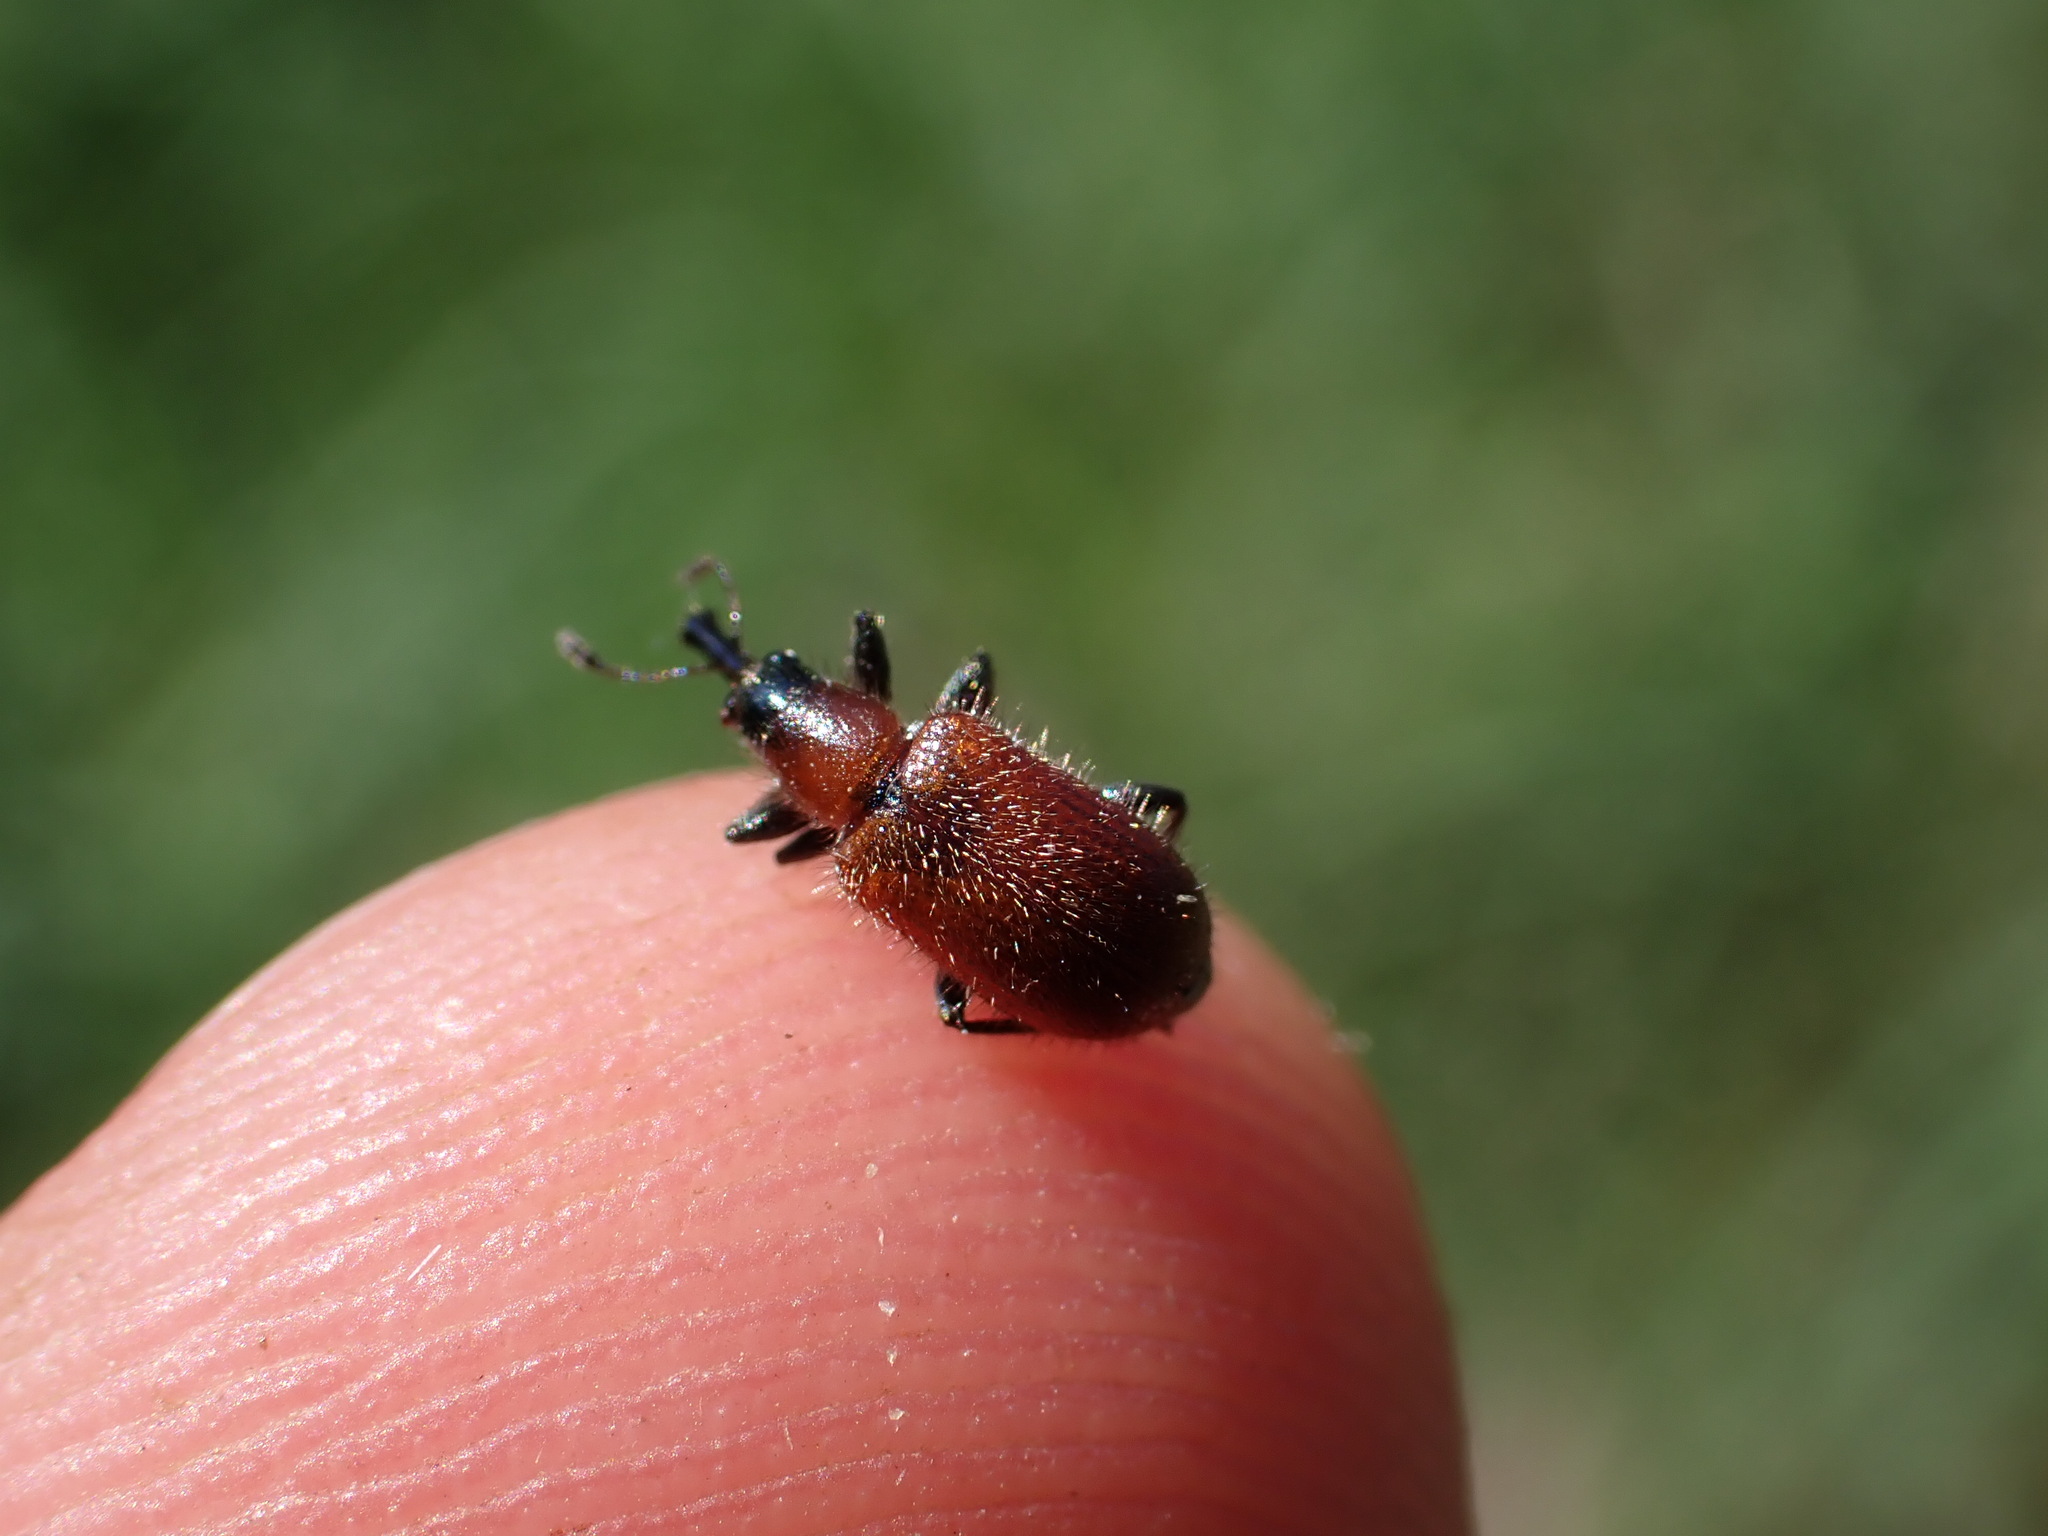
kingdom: Animalia
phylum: Arthropoda
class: Insecta
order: Coleoptera
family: Attelabidae
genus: Lasiorhynchites
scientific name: Lasiorhynchites caeruleocephalus
